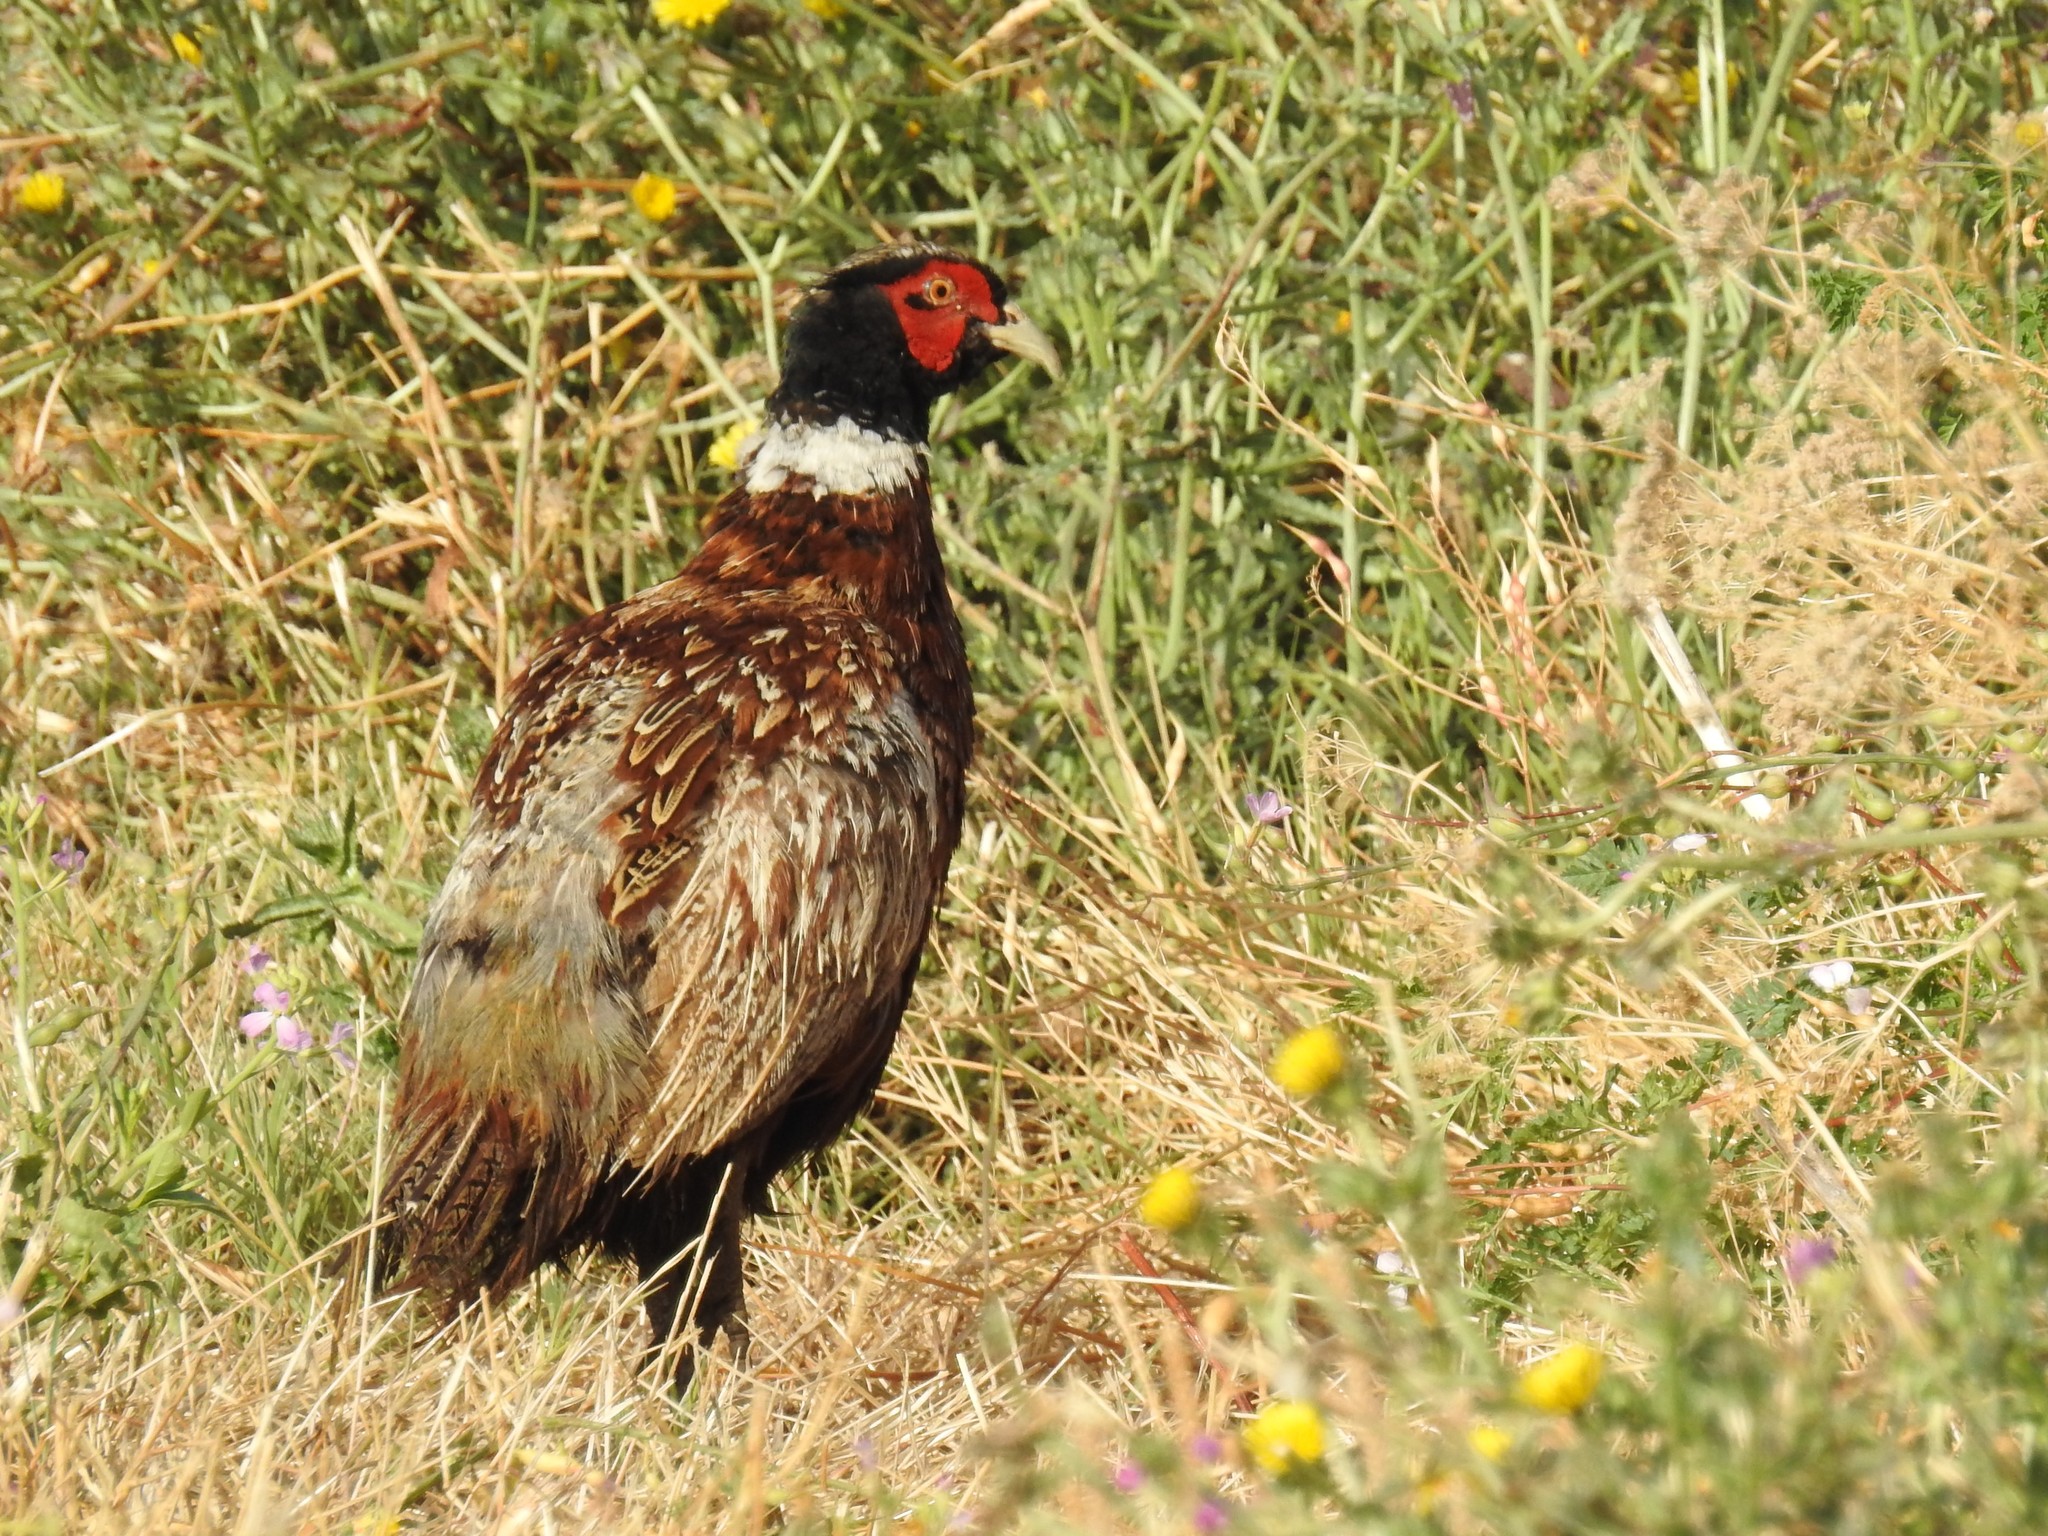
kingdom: Animalia
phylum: Chordata
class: Aves
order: Galliformes
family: Phasianidae
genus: Phasianus
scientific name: Phasianus colchicus
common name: Common pheasant
